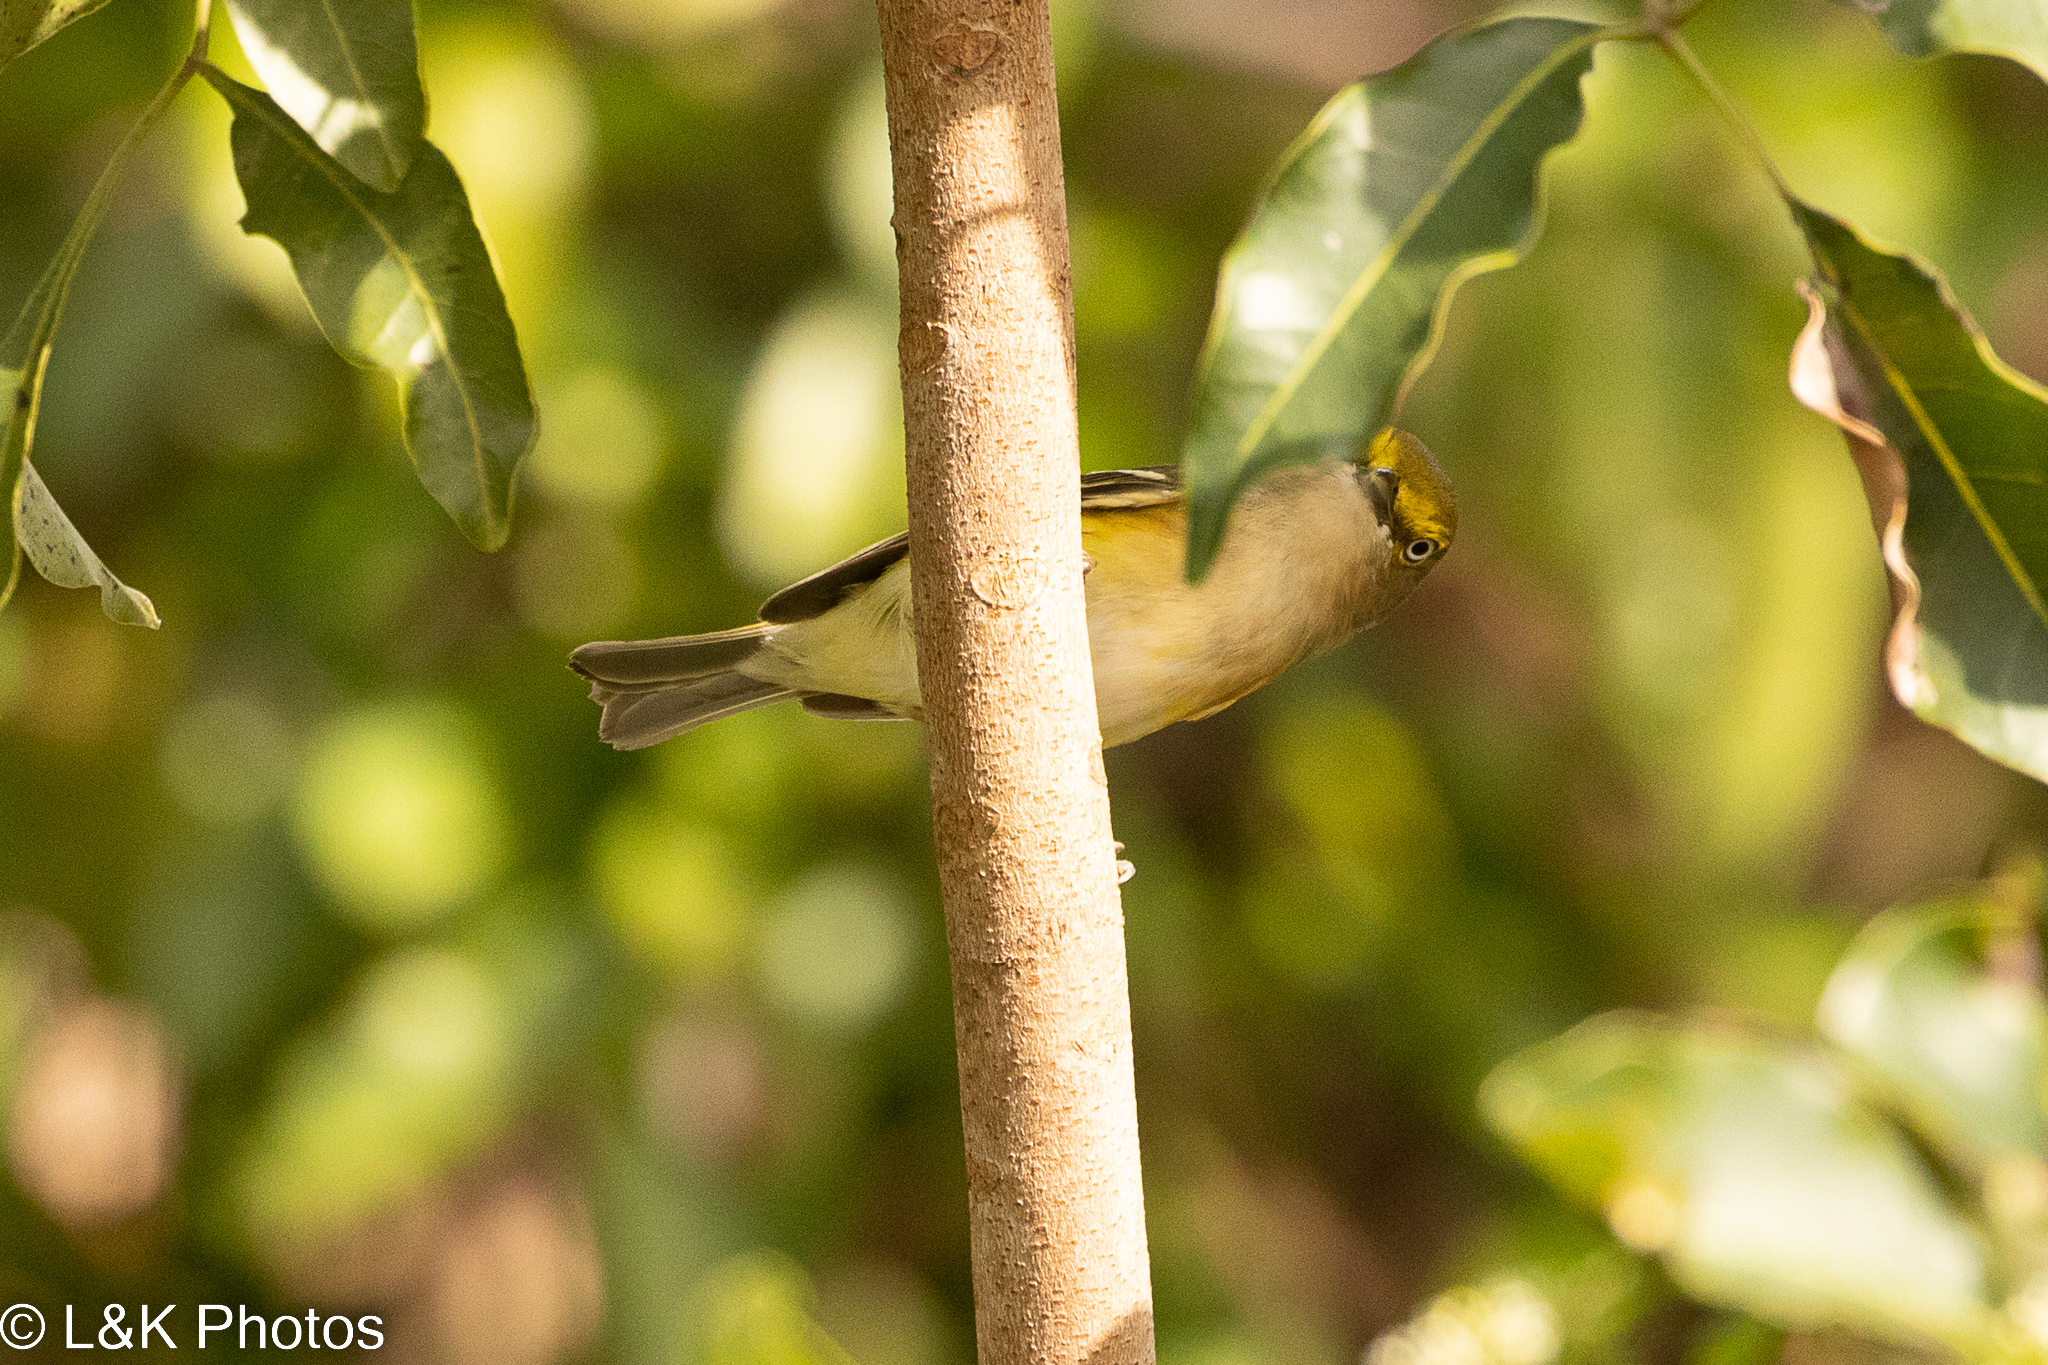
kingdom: Animalia
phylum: Chordata
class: Aves
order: Passeriformes
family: Vireonidae
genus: Vireo
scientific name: Vireo griseus
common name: White-eyed vireo
